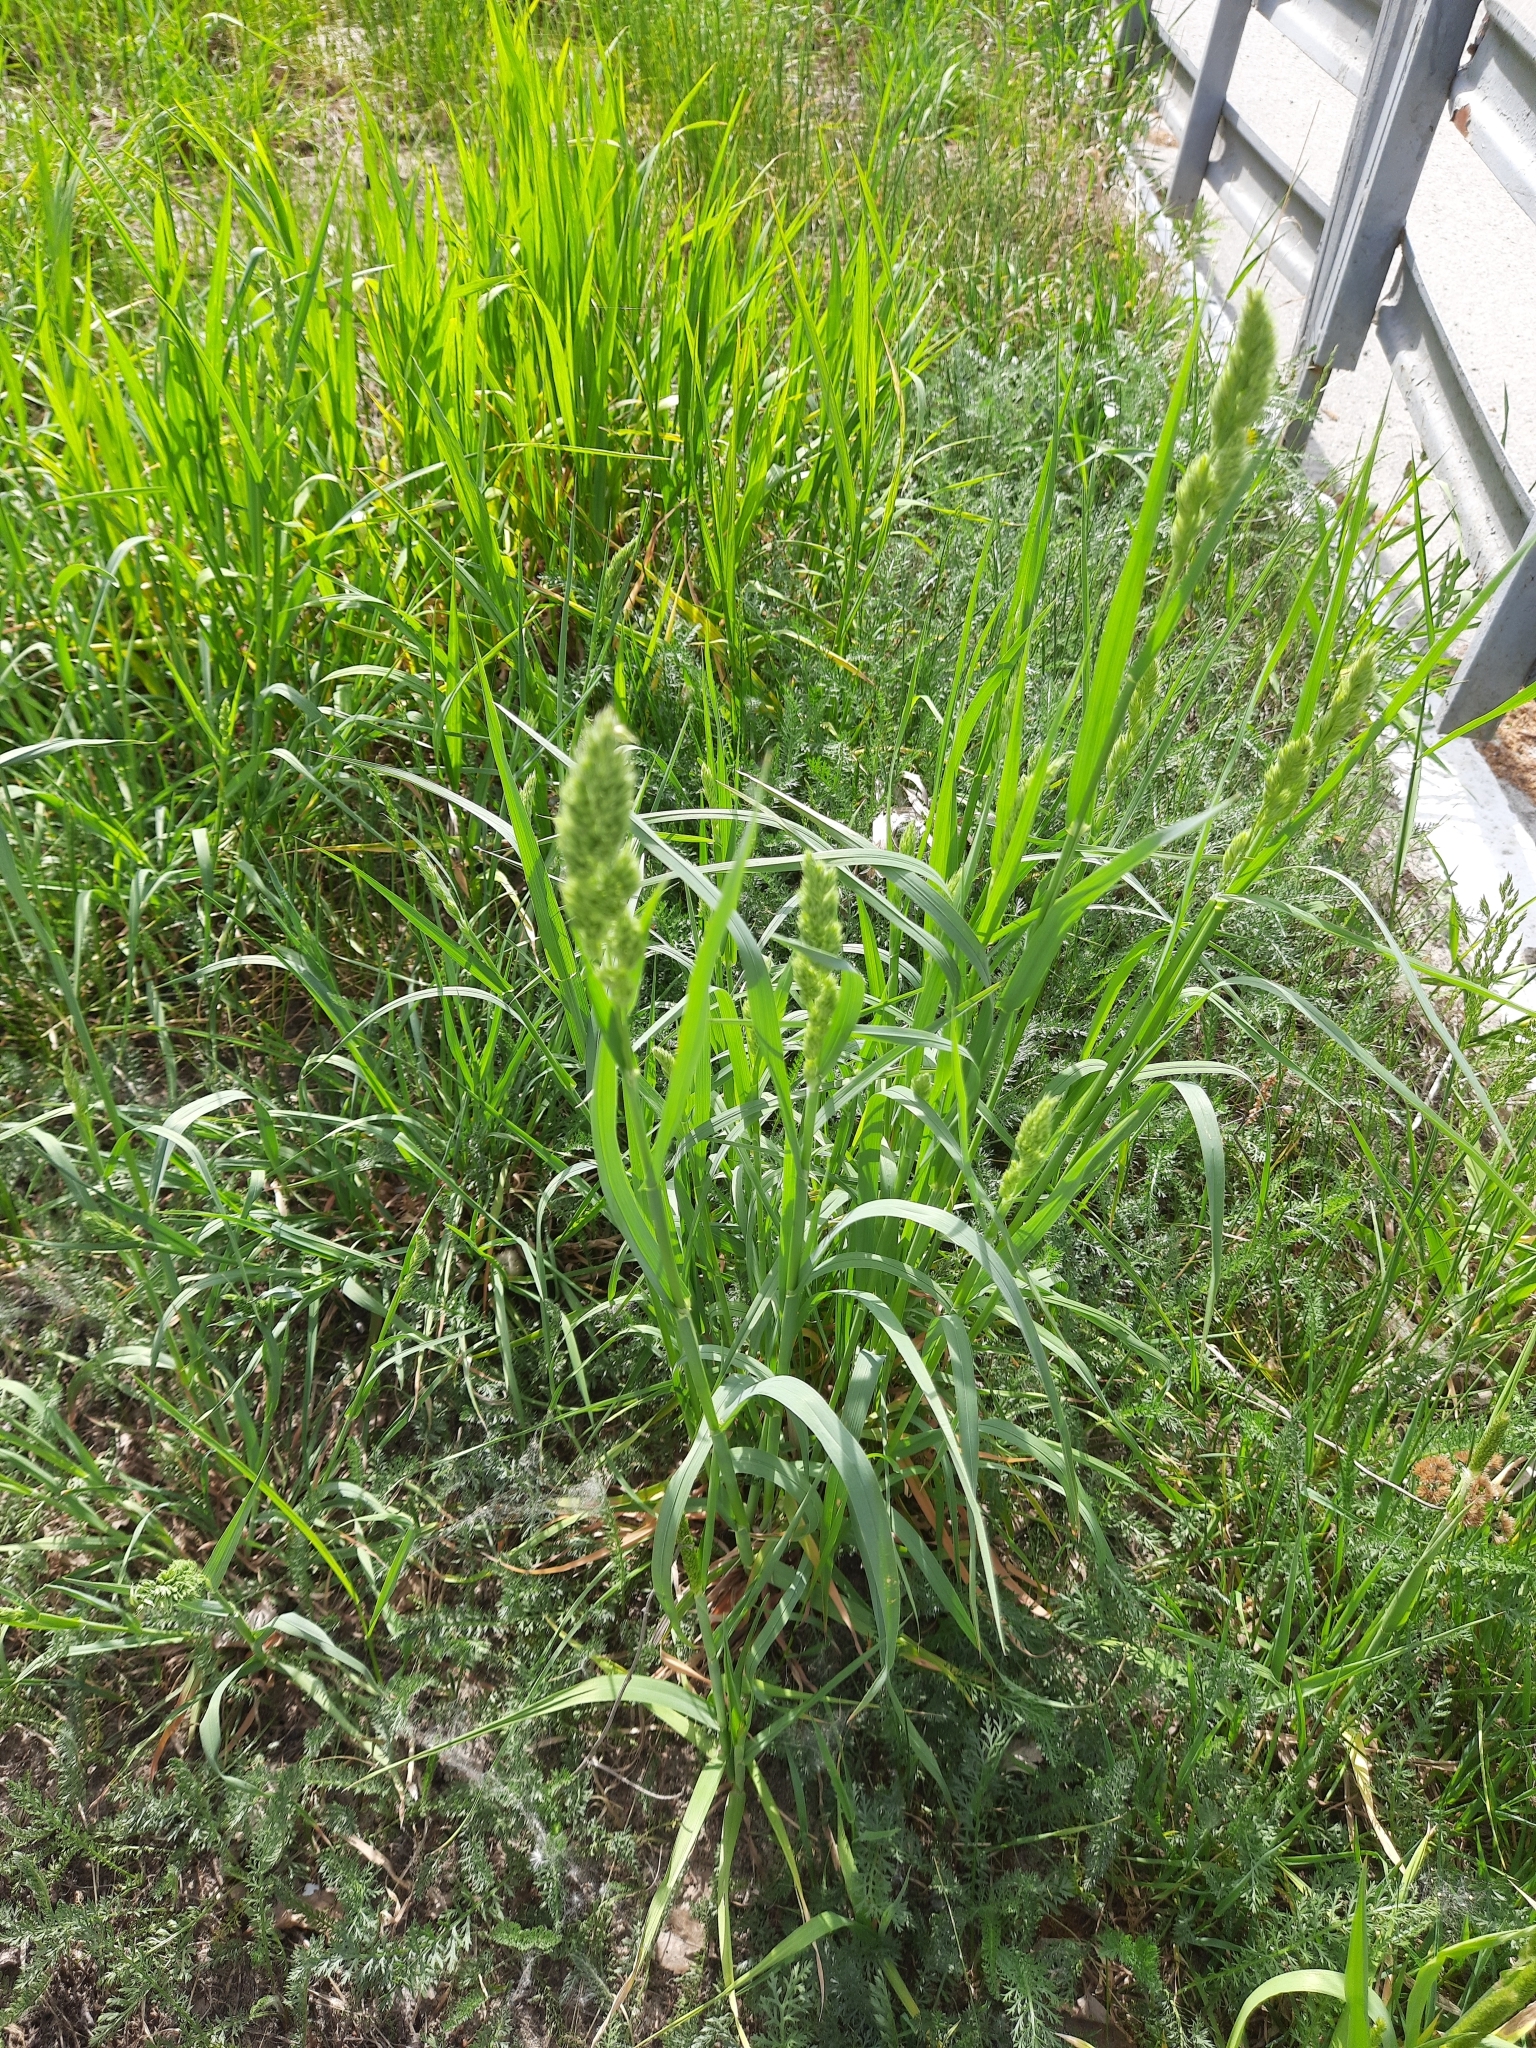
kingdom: Plantae
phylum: Tracheophyta
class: Liliopsida
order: Poales
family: Poaceae
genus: Dactylis
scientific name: Dactylis glomerata
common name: Orchardgrass
